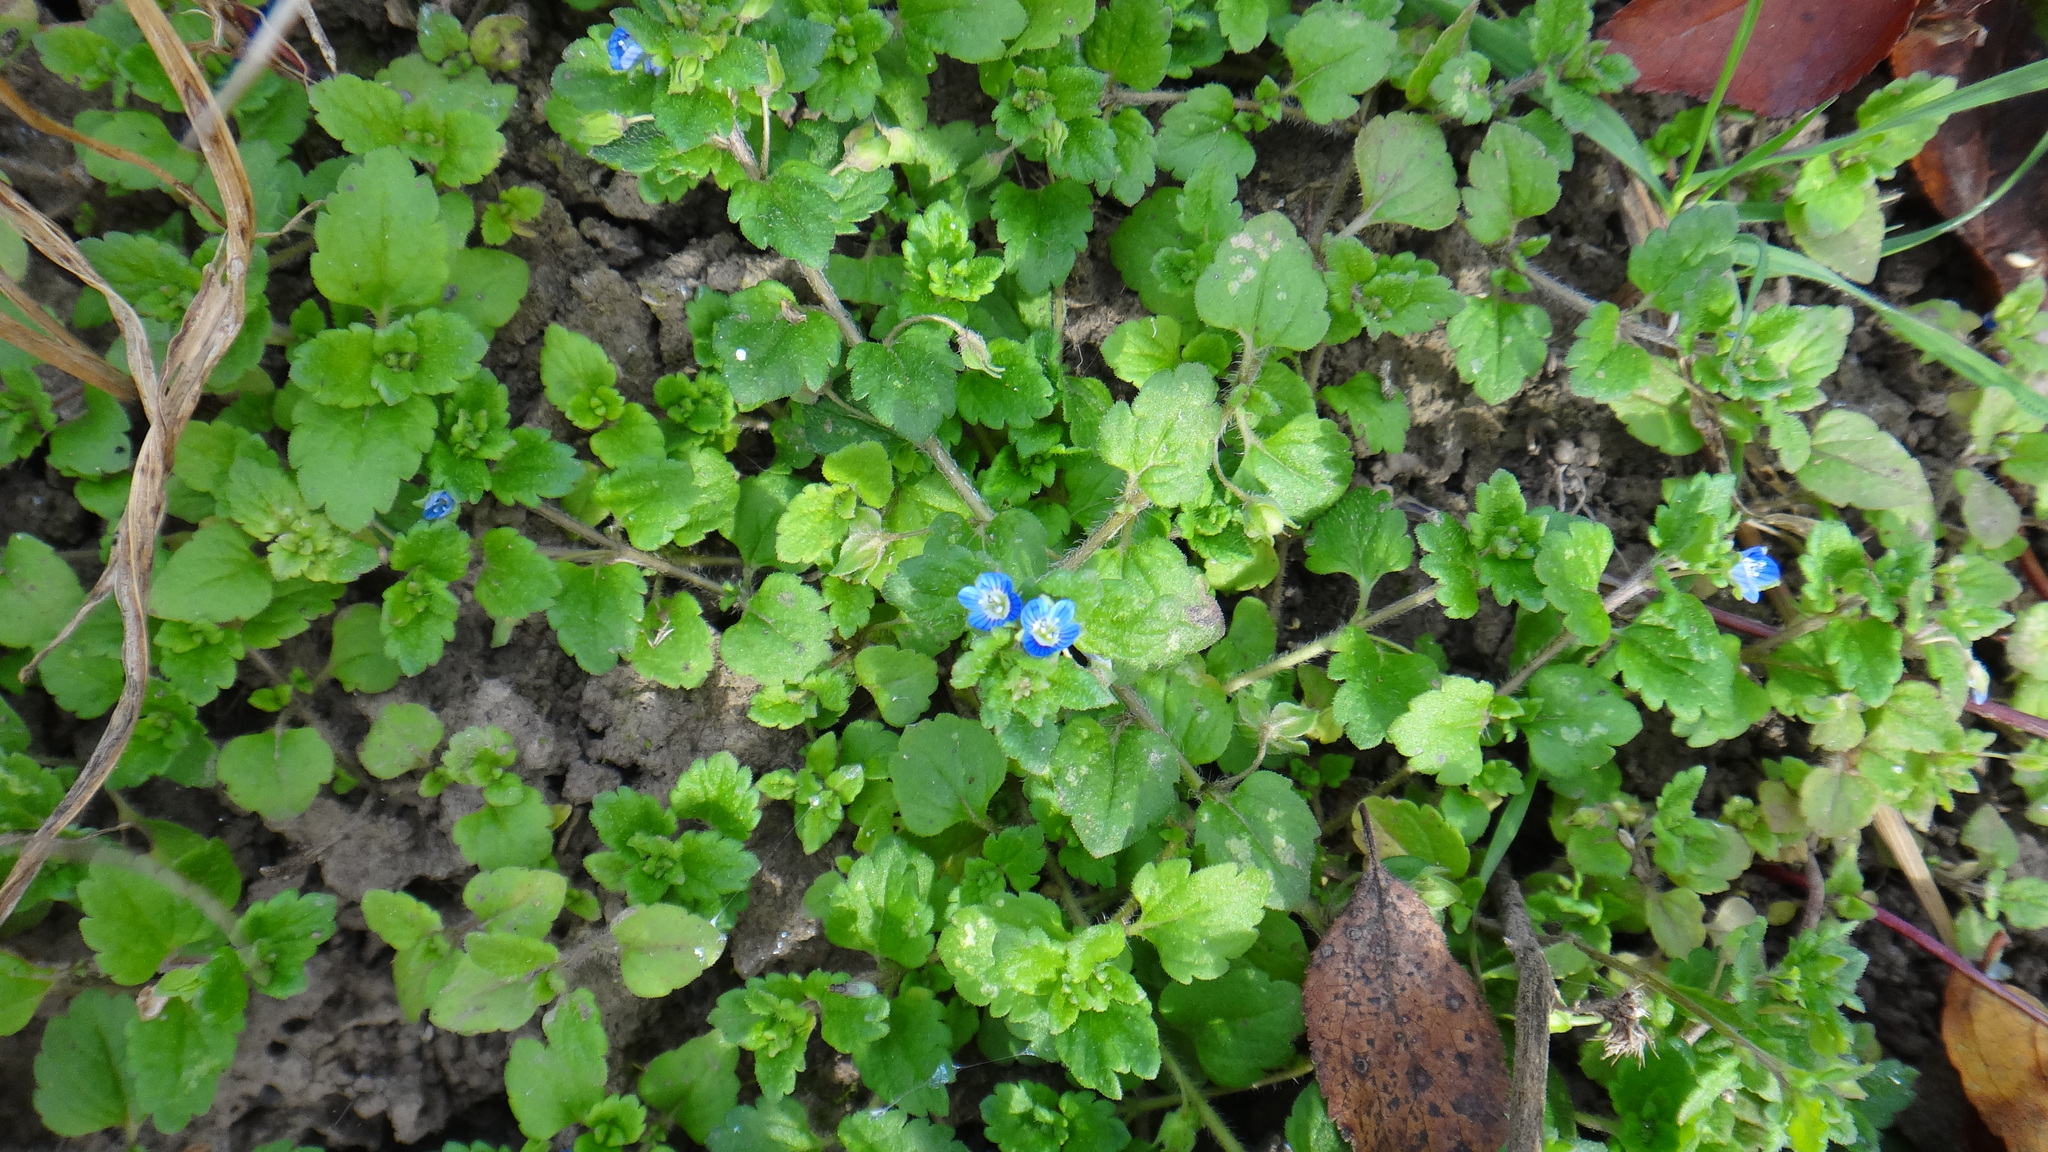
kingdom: Plantae
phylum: Tracheophyta
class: Magnoliopsida
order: Lamiales
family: Plantaginaceae
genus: Veronica
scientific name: Veronica polita
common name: Grey field-speedwell
